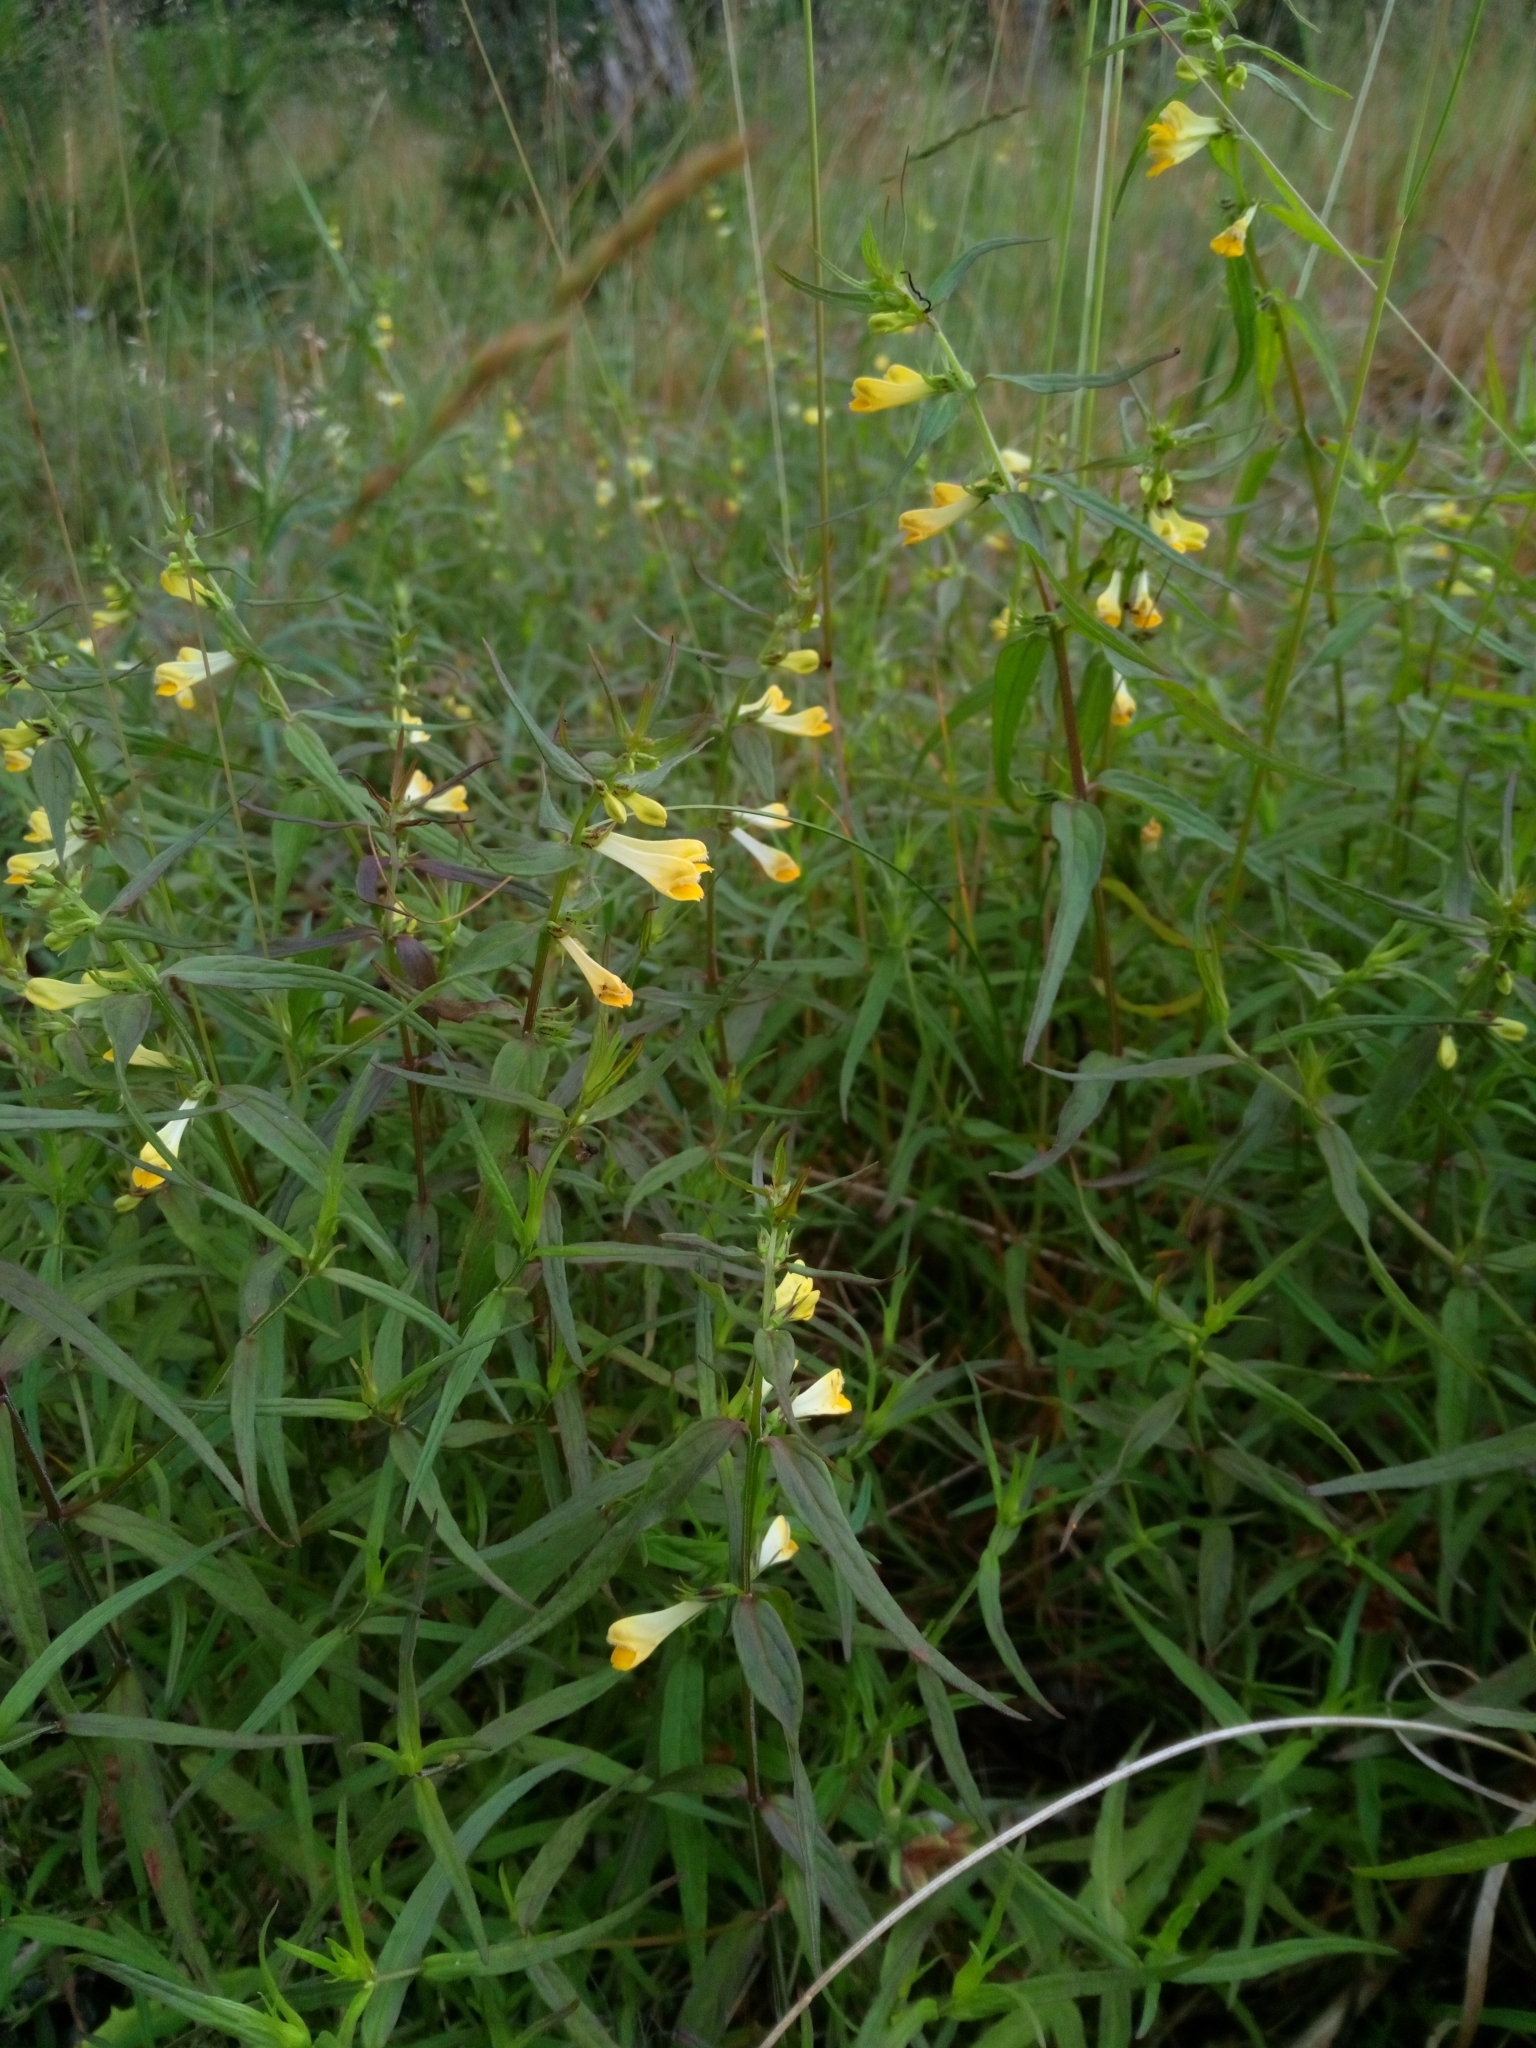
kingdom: Plantae
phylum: Tracheophyta
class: Magnoliopsida
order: Lamiales
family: Orobanchaceae
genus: Melampyrum
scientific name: Melampyrum pratense
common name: Common cow-wheat
